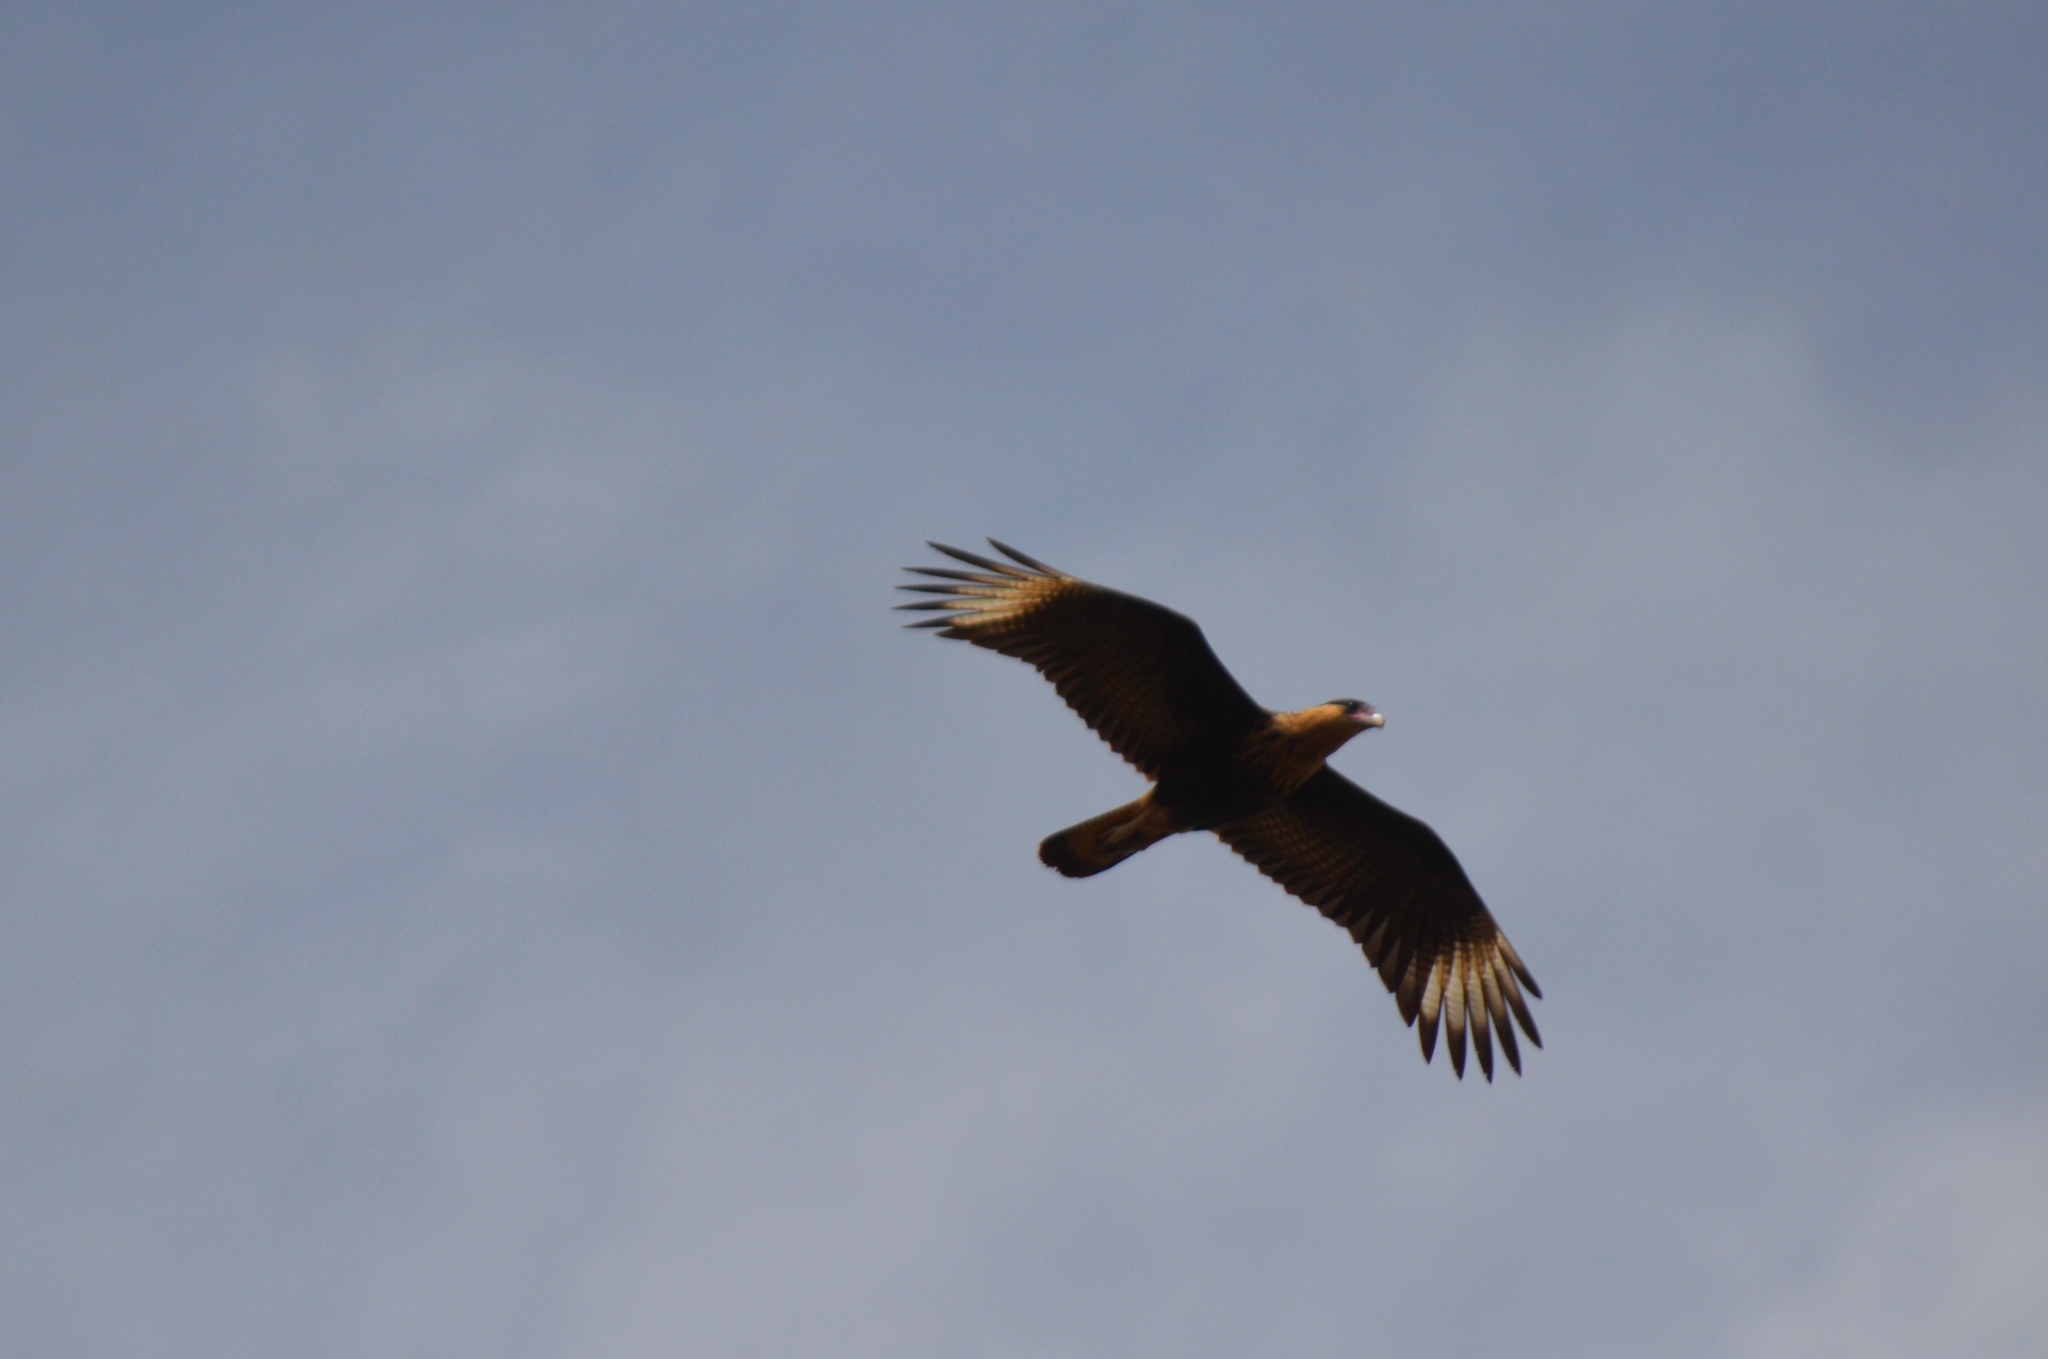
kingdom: Animalia
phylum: Chordata
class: Aves
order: Falconiformes
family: Falconidae
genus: Caracara
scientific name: Caracara plancus
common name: Southern caracara
